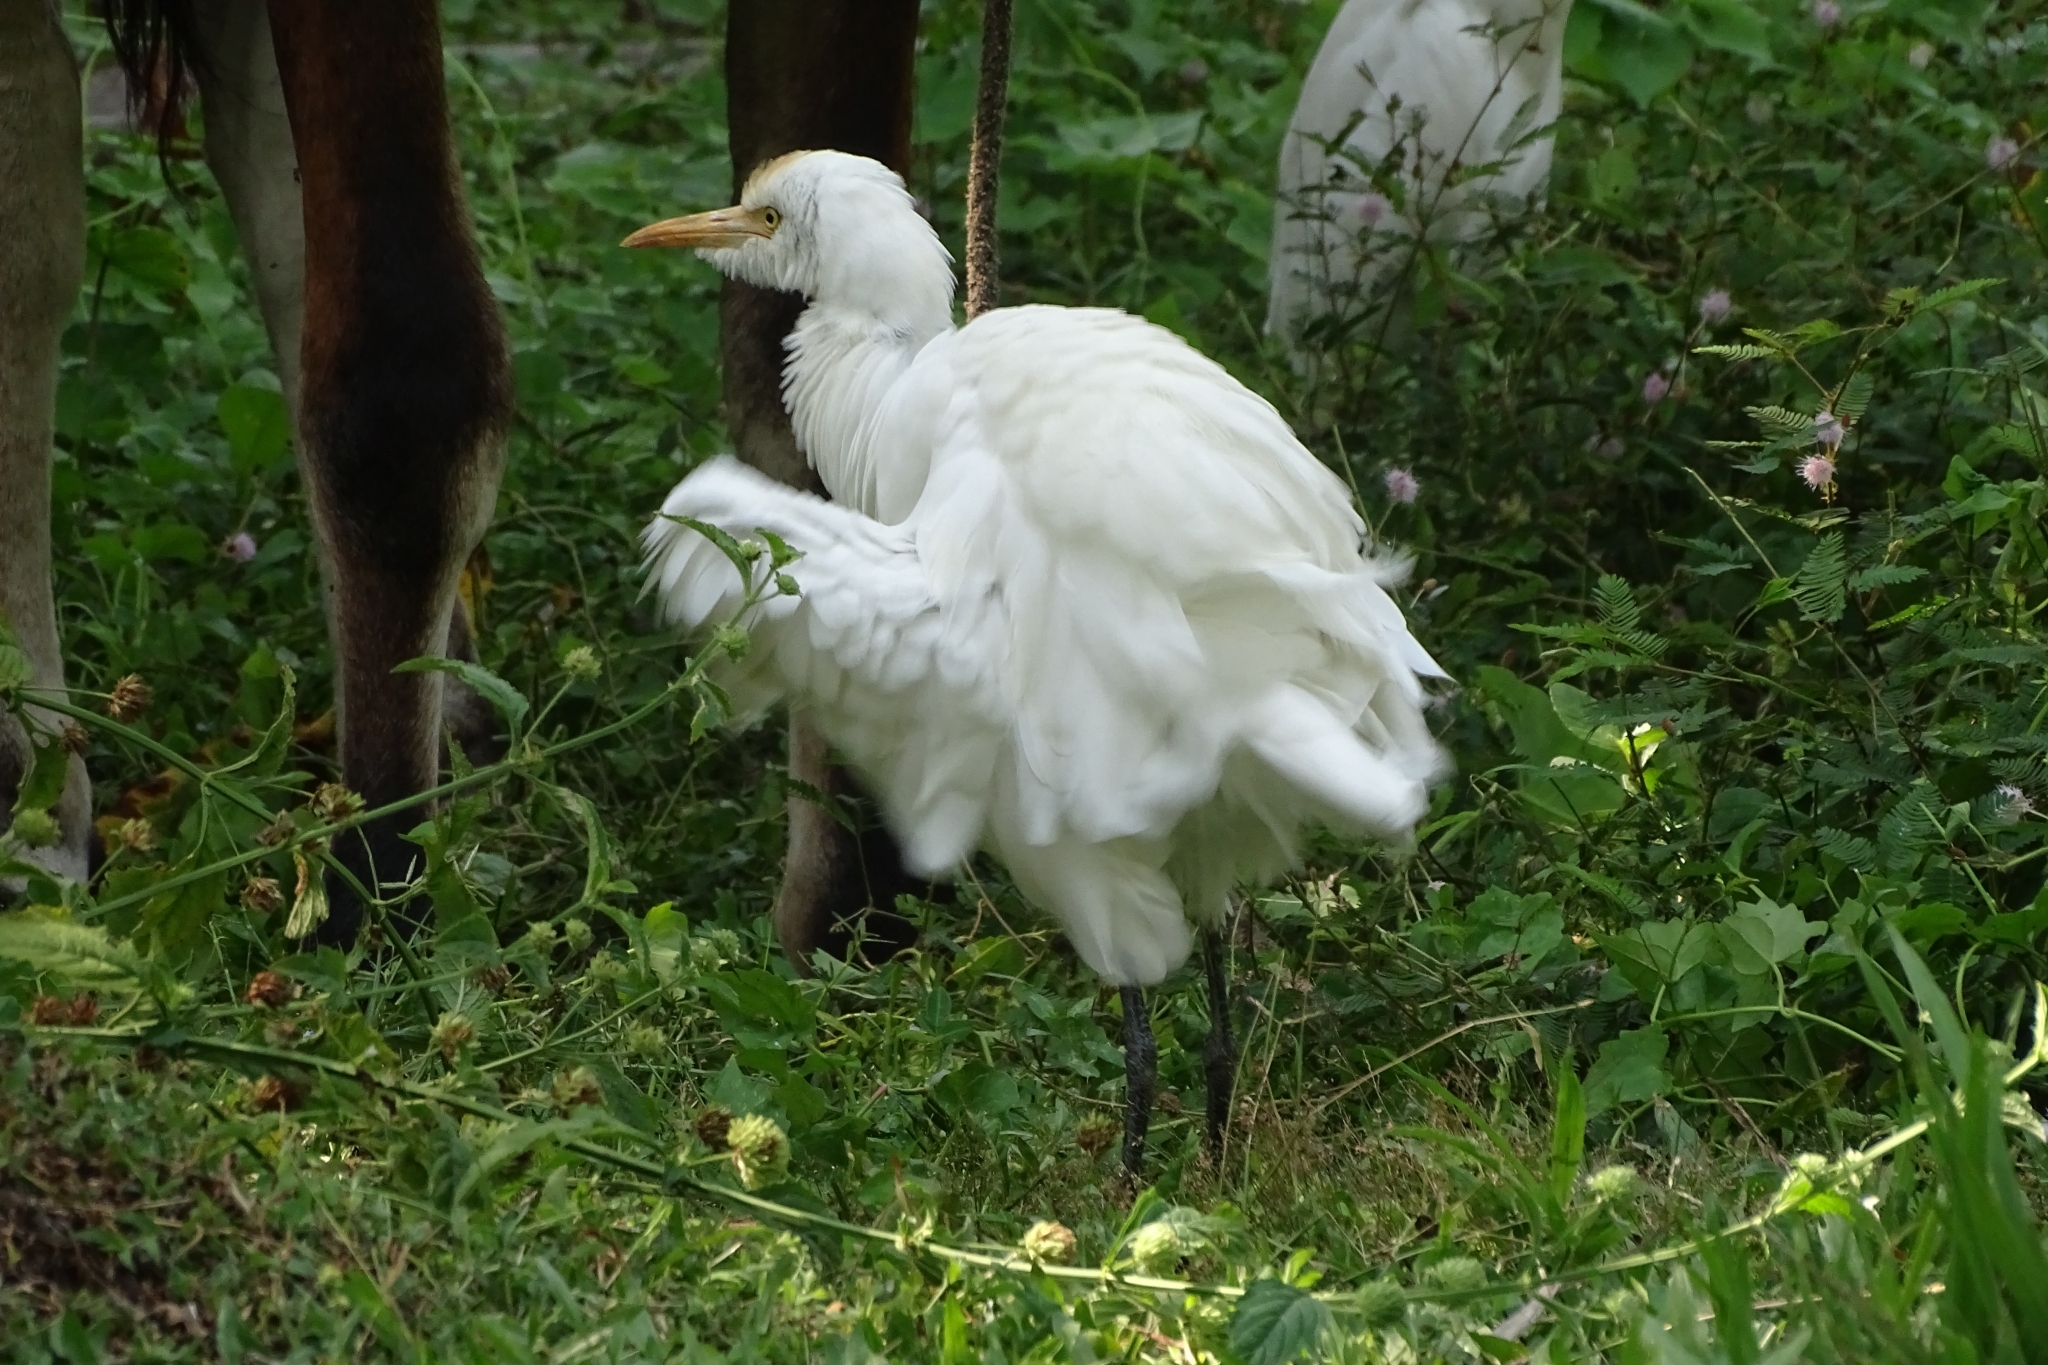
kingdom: Animalia
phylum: Chordata
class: Aves
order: Pelecaniformes
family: Ardeidae
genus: Bubulcus
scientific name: Bubulcus coromandus
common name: Eastern cattle egret
